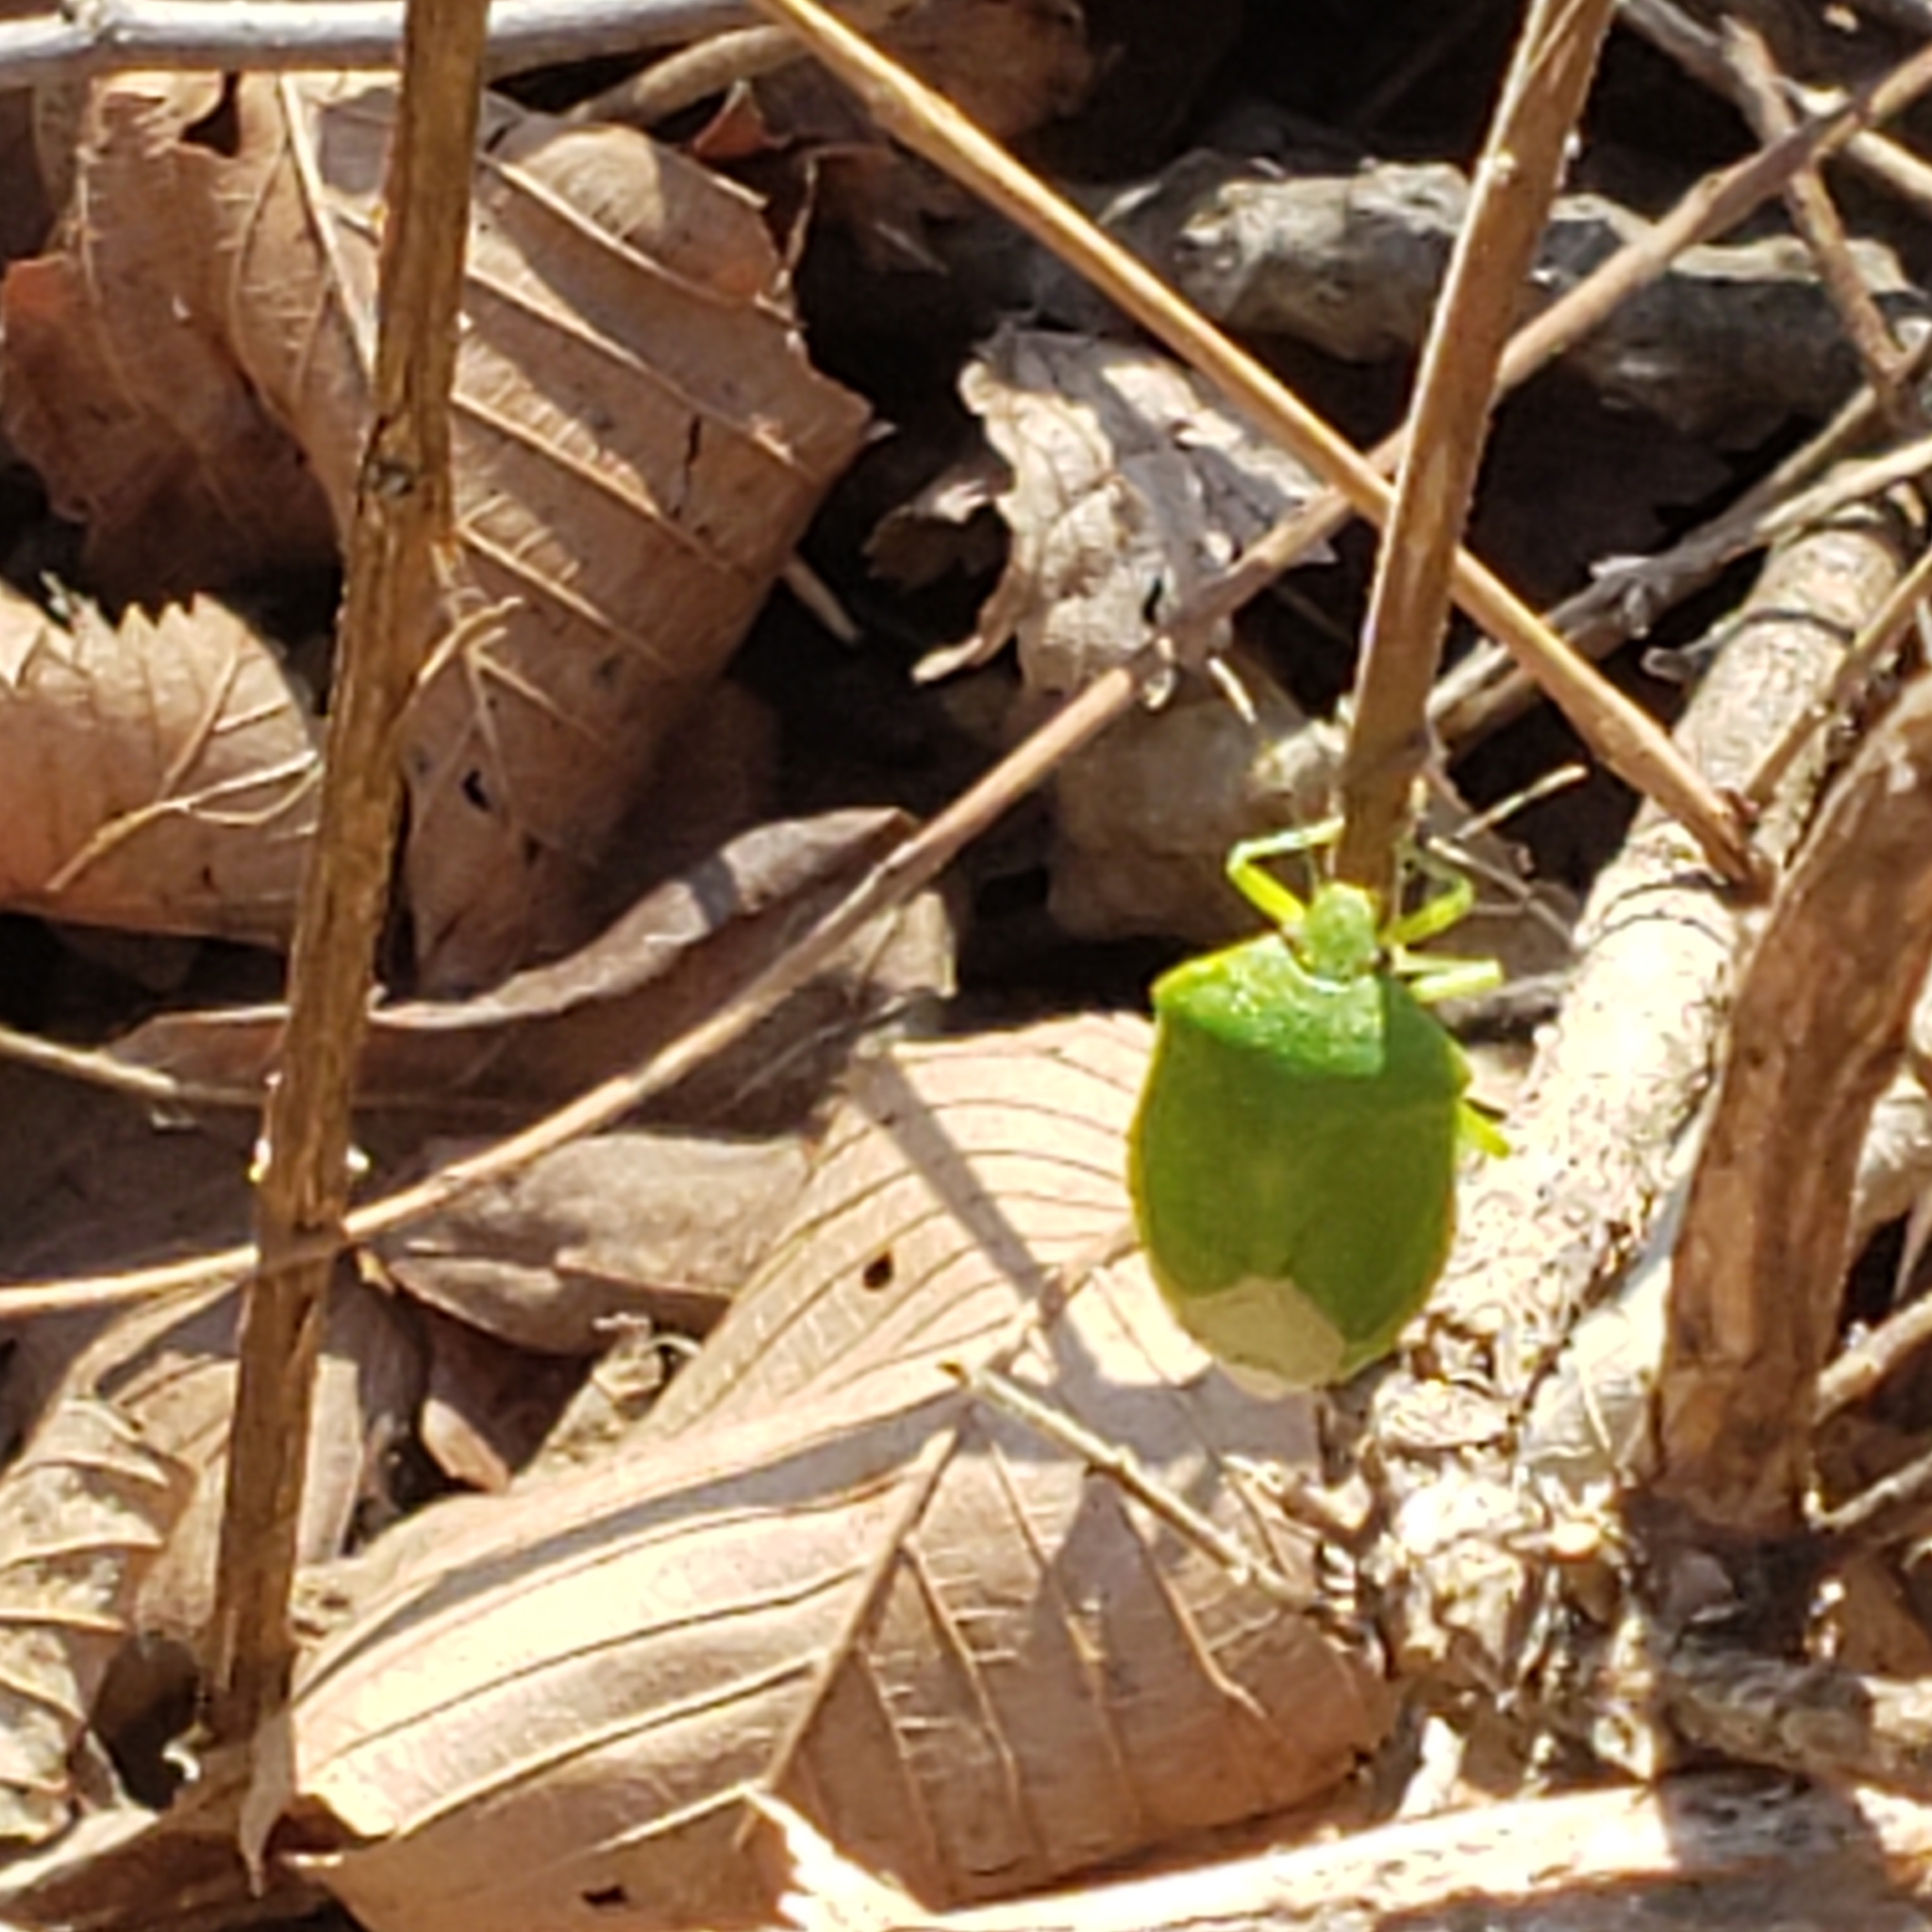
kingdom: Animalia
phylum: Arthropoda
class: Insecta
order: Hemiptera
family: Pentatomidae
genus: Chinavia
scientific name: Chinavia hilaris
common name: Green stink bug
